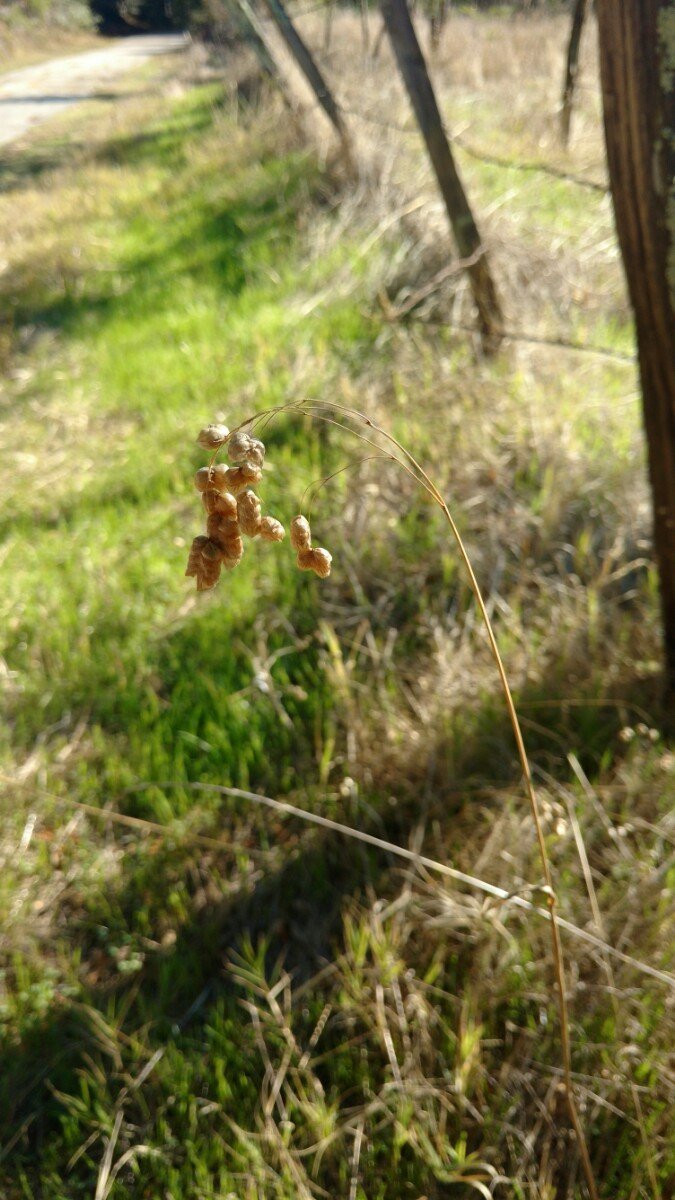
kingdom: Plantae
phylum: Tracheophyta
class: Liliopsida
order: Poales
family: Poaceae
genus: Briza
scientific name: Briza maxima
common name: Big quakinggrass
